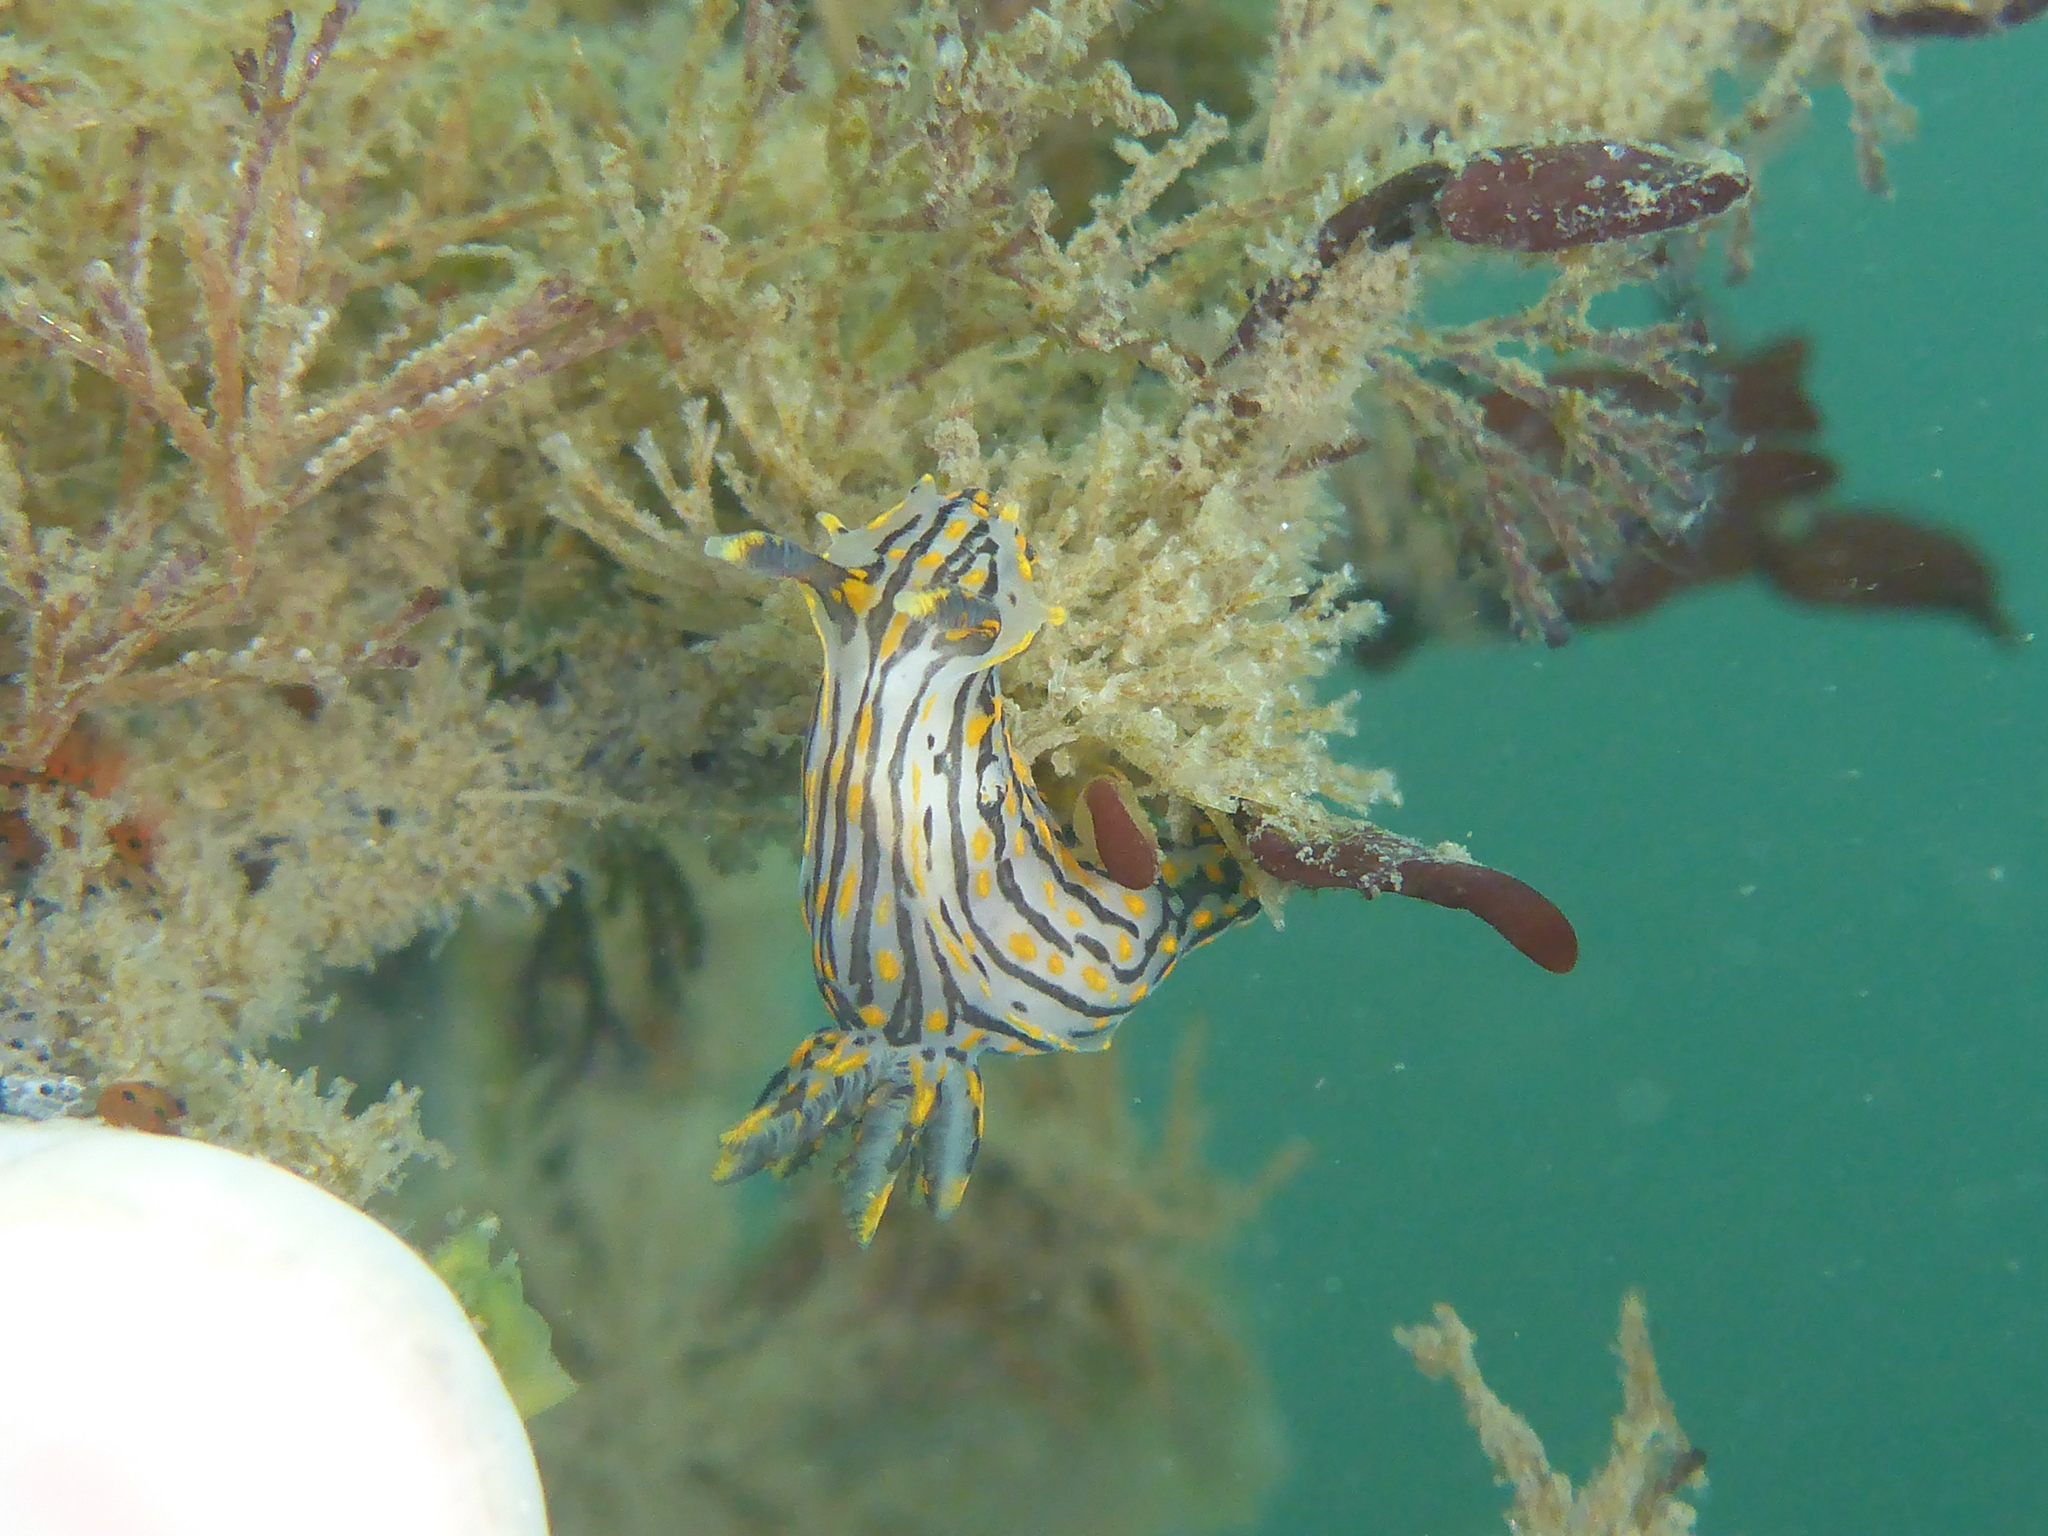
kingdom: Animalia
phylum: Mollusca
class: Gastropoda
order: Nudibranchia
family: Polyceridae
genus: Polycera
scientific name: Polycera atra
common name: Orange-spike polycera
